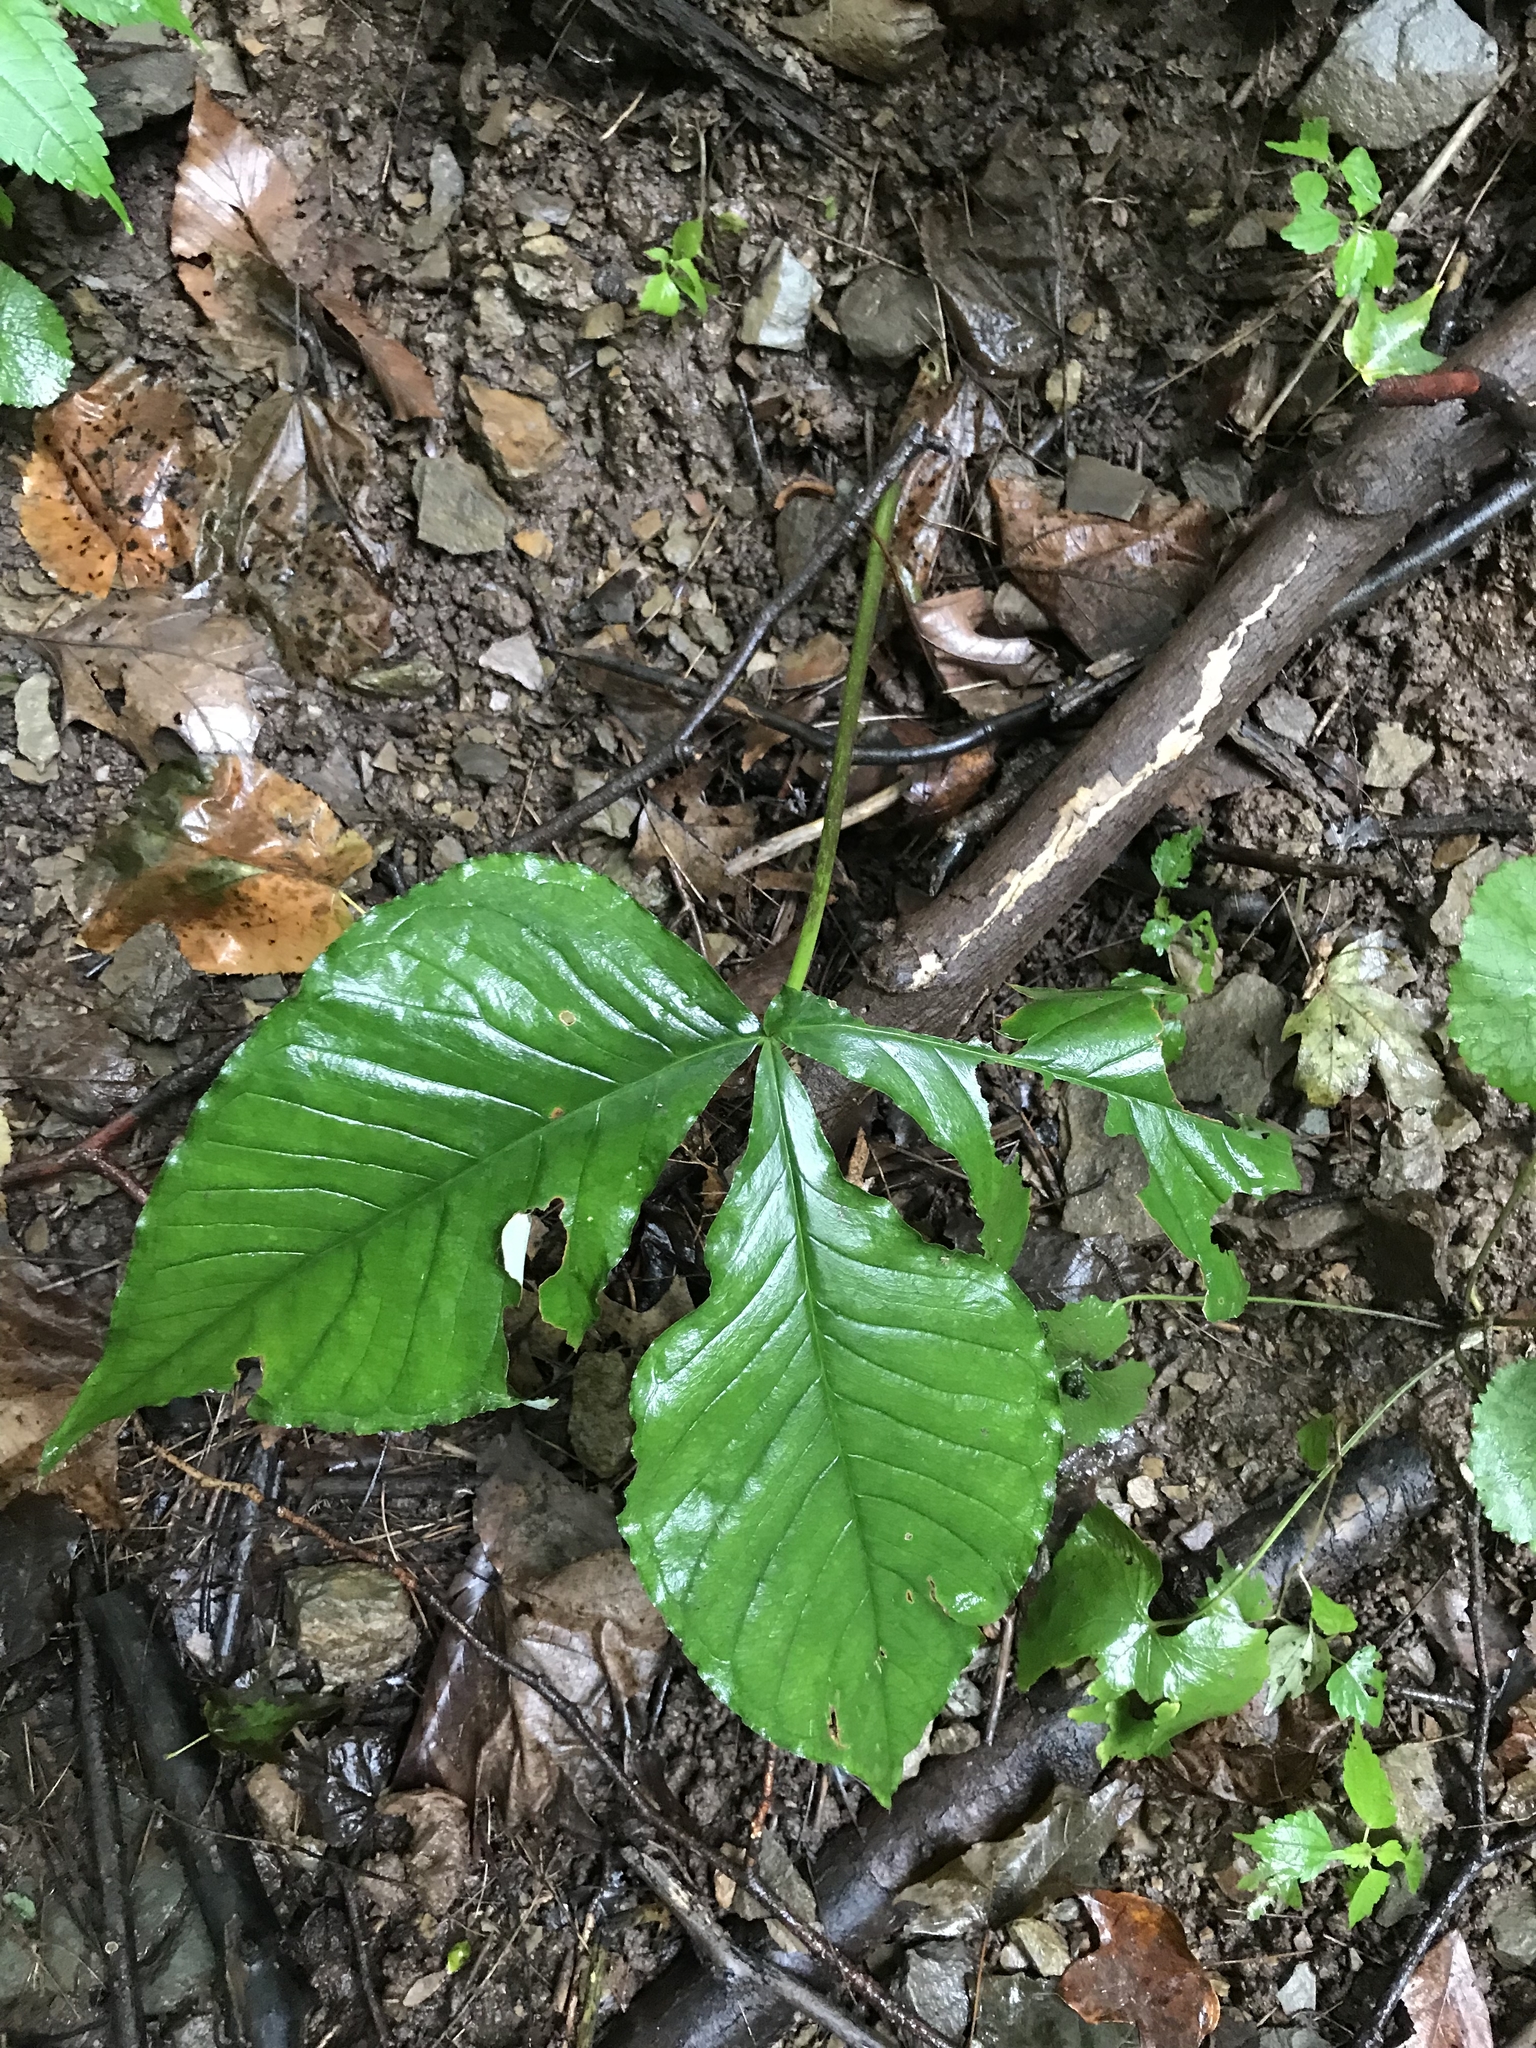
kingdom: Plantae
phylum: Tracheophyta
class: Liliopsida
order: Alismatales
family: Araceae
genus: Arisaema
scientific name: Arisaema triphyllum
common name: Jack-in-the-pulpit
